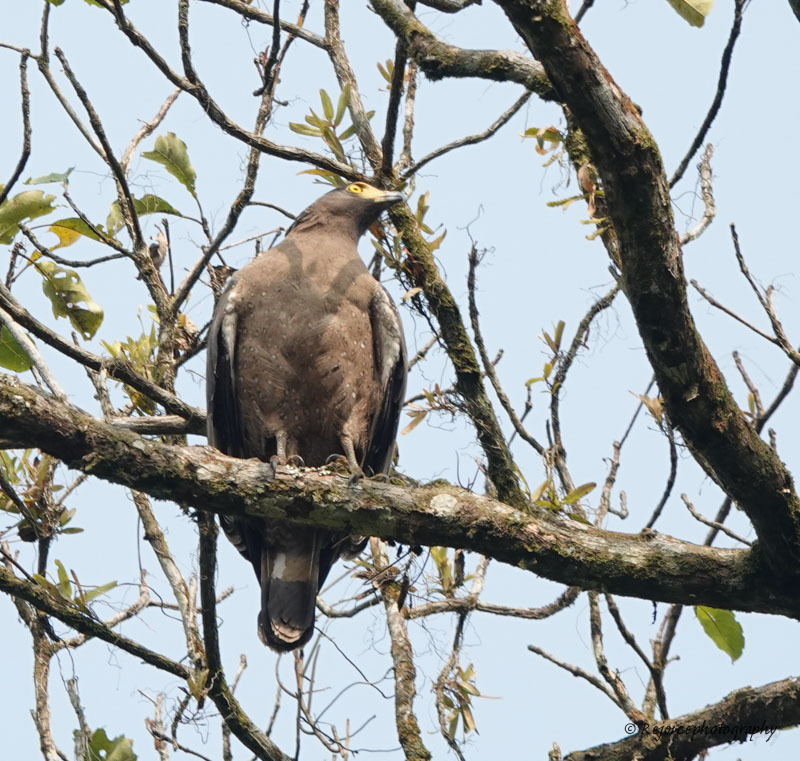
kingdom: Animalia
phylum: Chordata
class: Aves
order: Accipitriformes
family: Accipitridae
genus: Spilornis
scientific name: Spilornis cheela
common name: Crested serpent eagle
